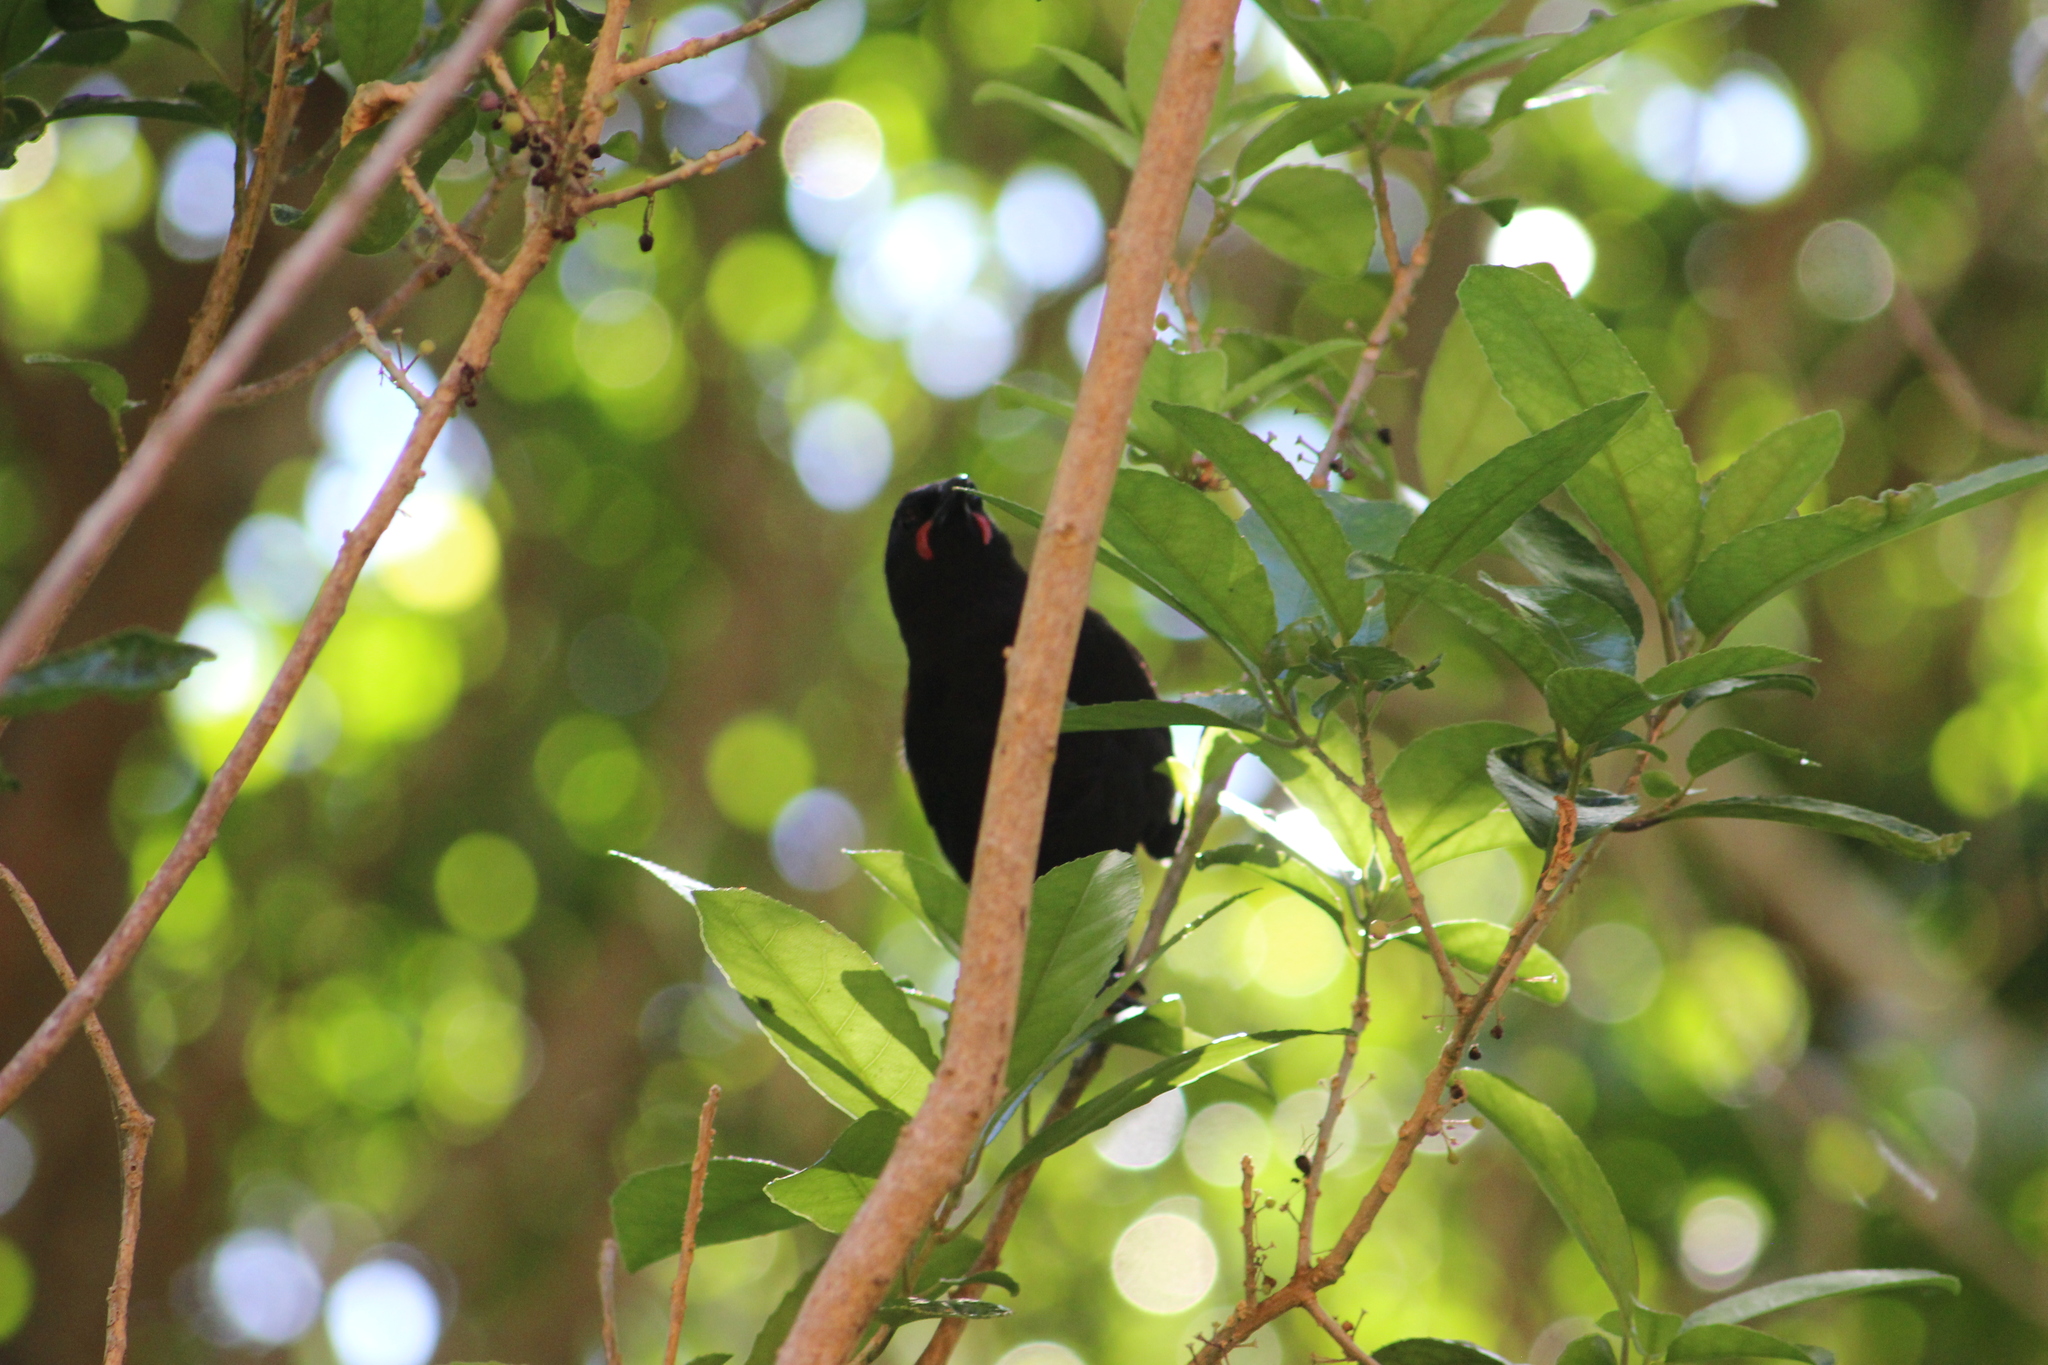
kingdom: Animalia
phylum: Chordata
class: Aves
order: Passeriformes
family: Callaeatidae
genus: Philesturnus
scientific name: Philesturnus carunculatus
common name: South island saddleback
